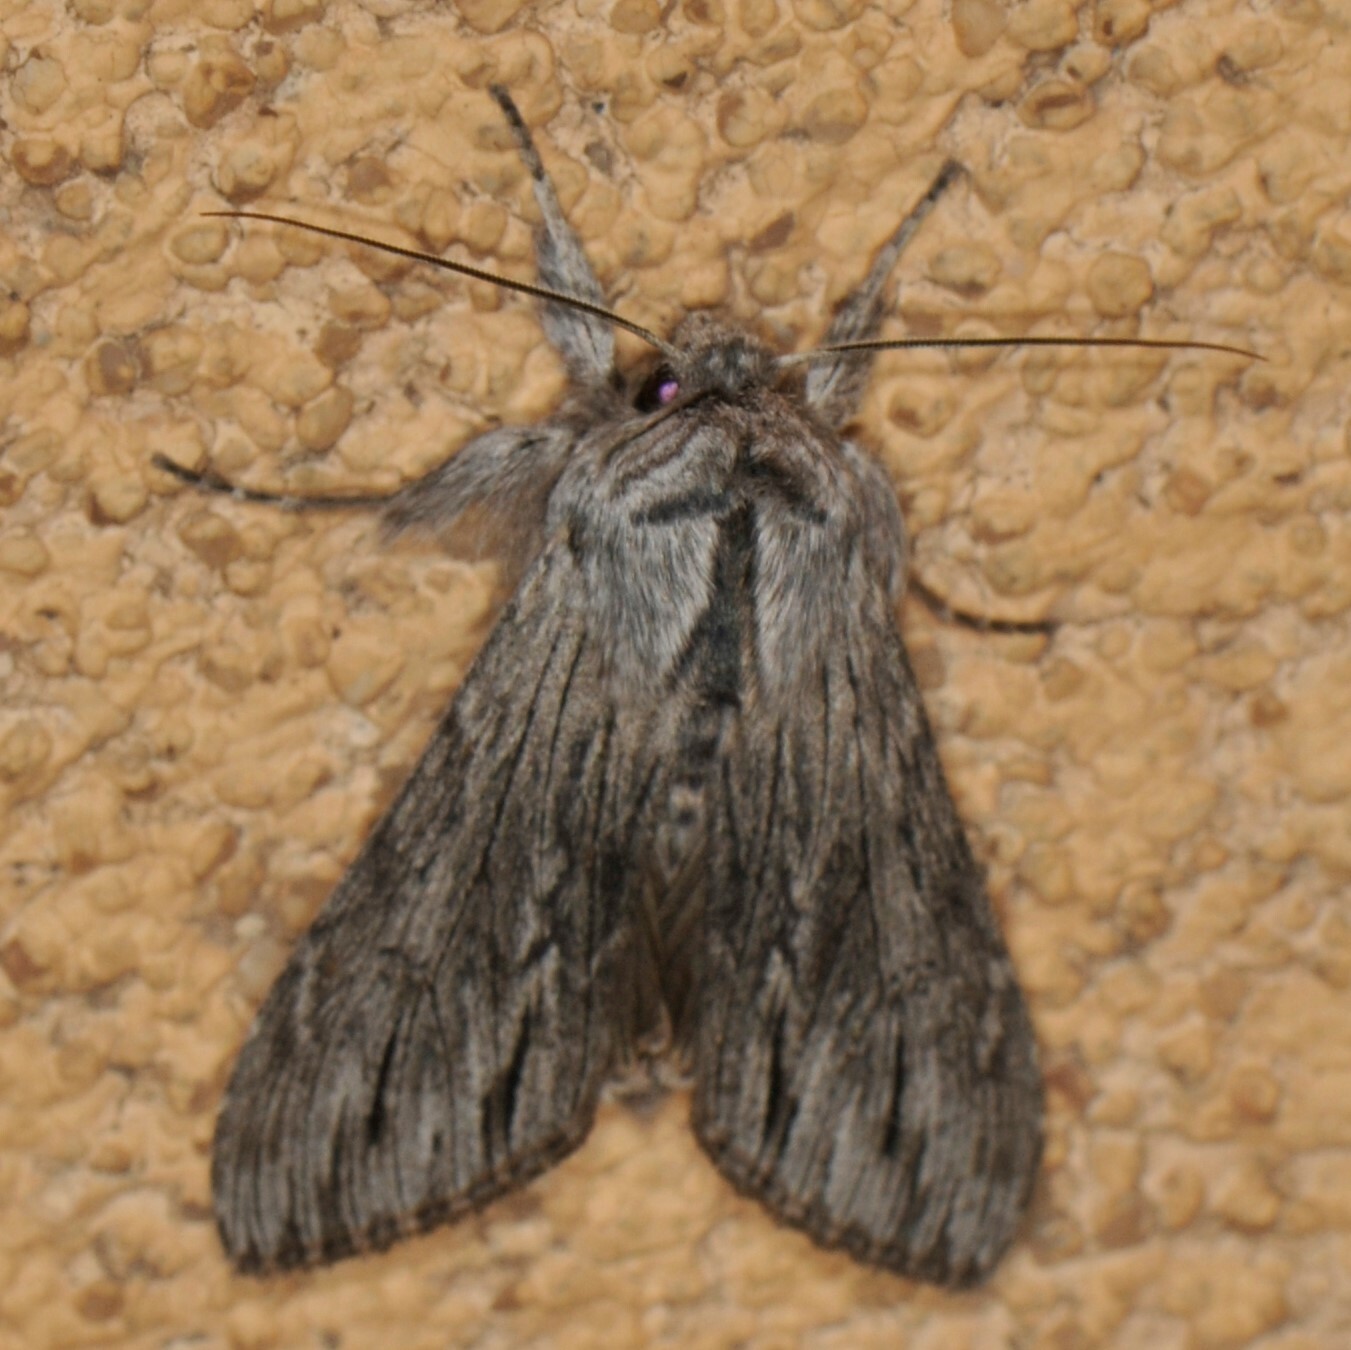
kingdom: Animalia
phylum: Arthropoda
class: Insecta
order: Lepidoptera
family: Noctuidae
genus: Cucullia
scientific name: Cucullia strigata
